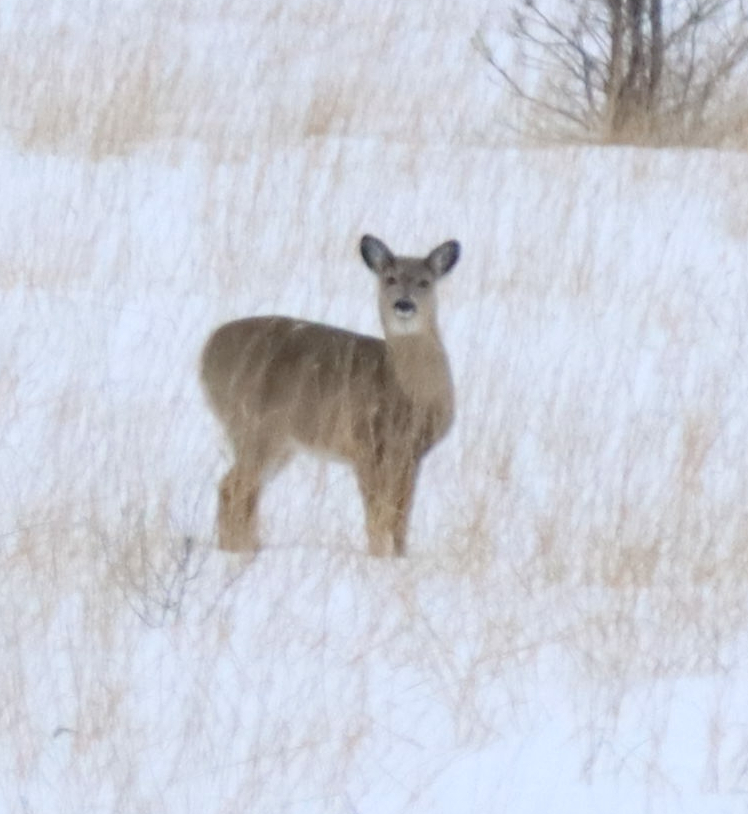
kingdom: Animalia
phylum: Chordata
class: Mammalia
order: Artiodactyla
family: Cervidae
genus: Odocoileus
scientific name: Odocoileus virginianus
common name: White-tailed deer
